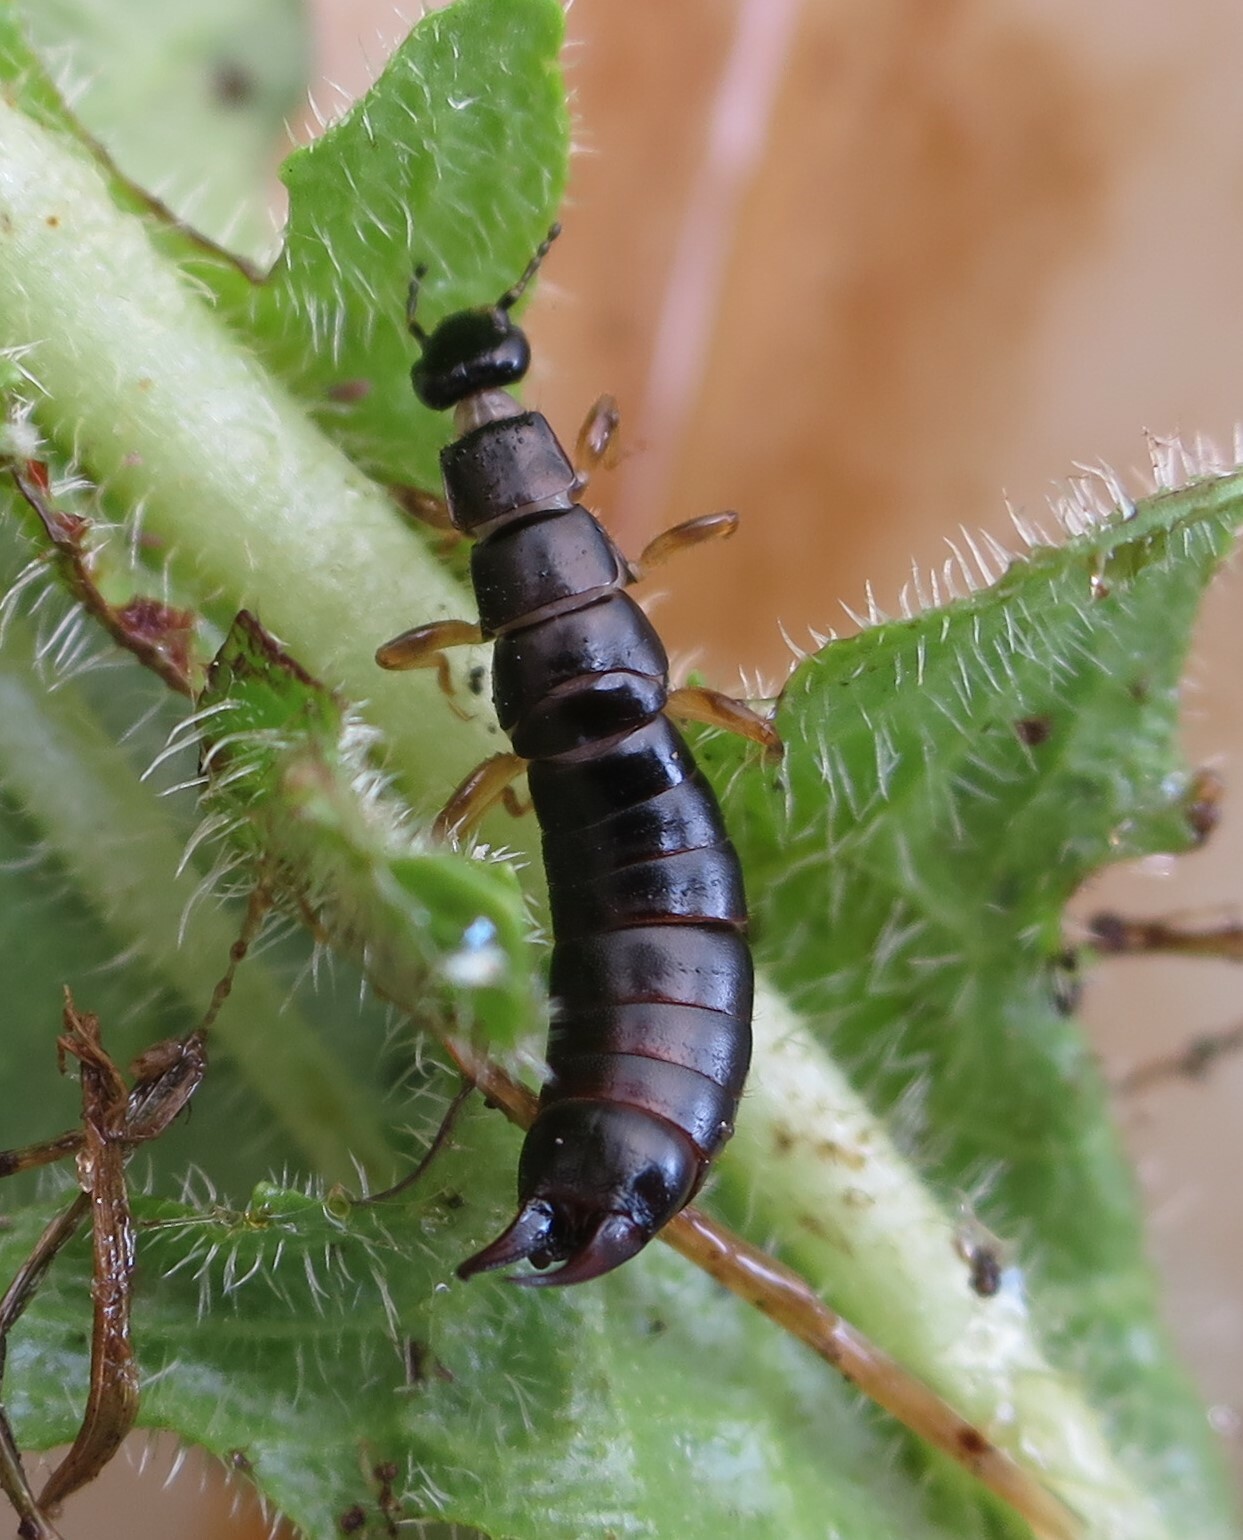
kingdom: Animalia
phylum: Arthropoda
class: Insecta
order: Dermaptera
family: Anisolabididae
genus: Euborellia
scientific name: Euborellia annulipes
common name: Ringlegged earwig
